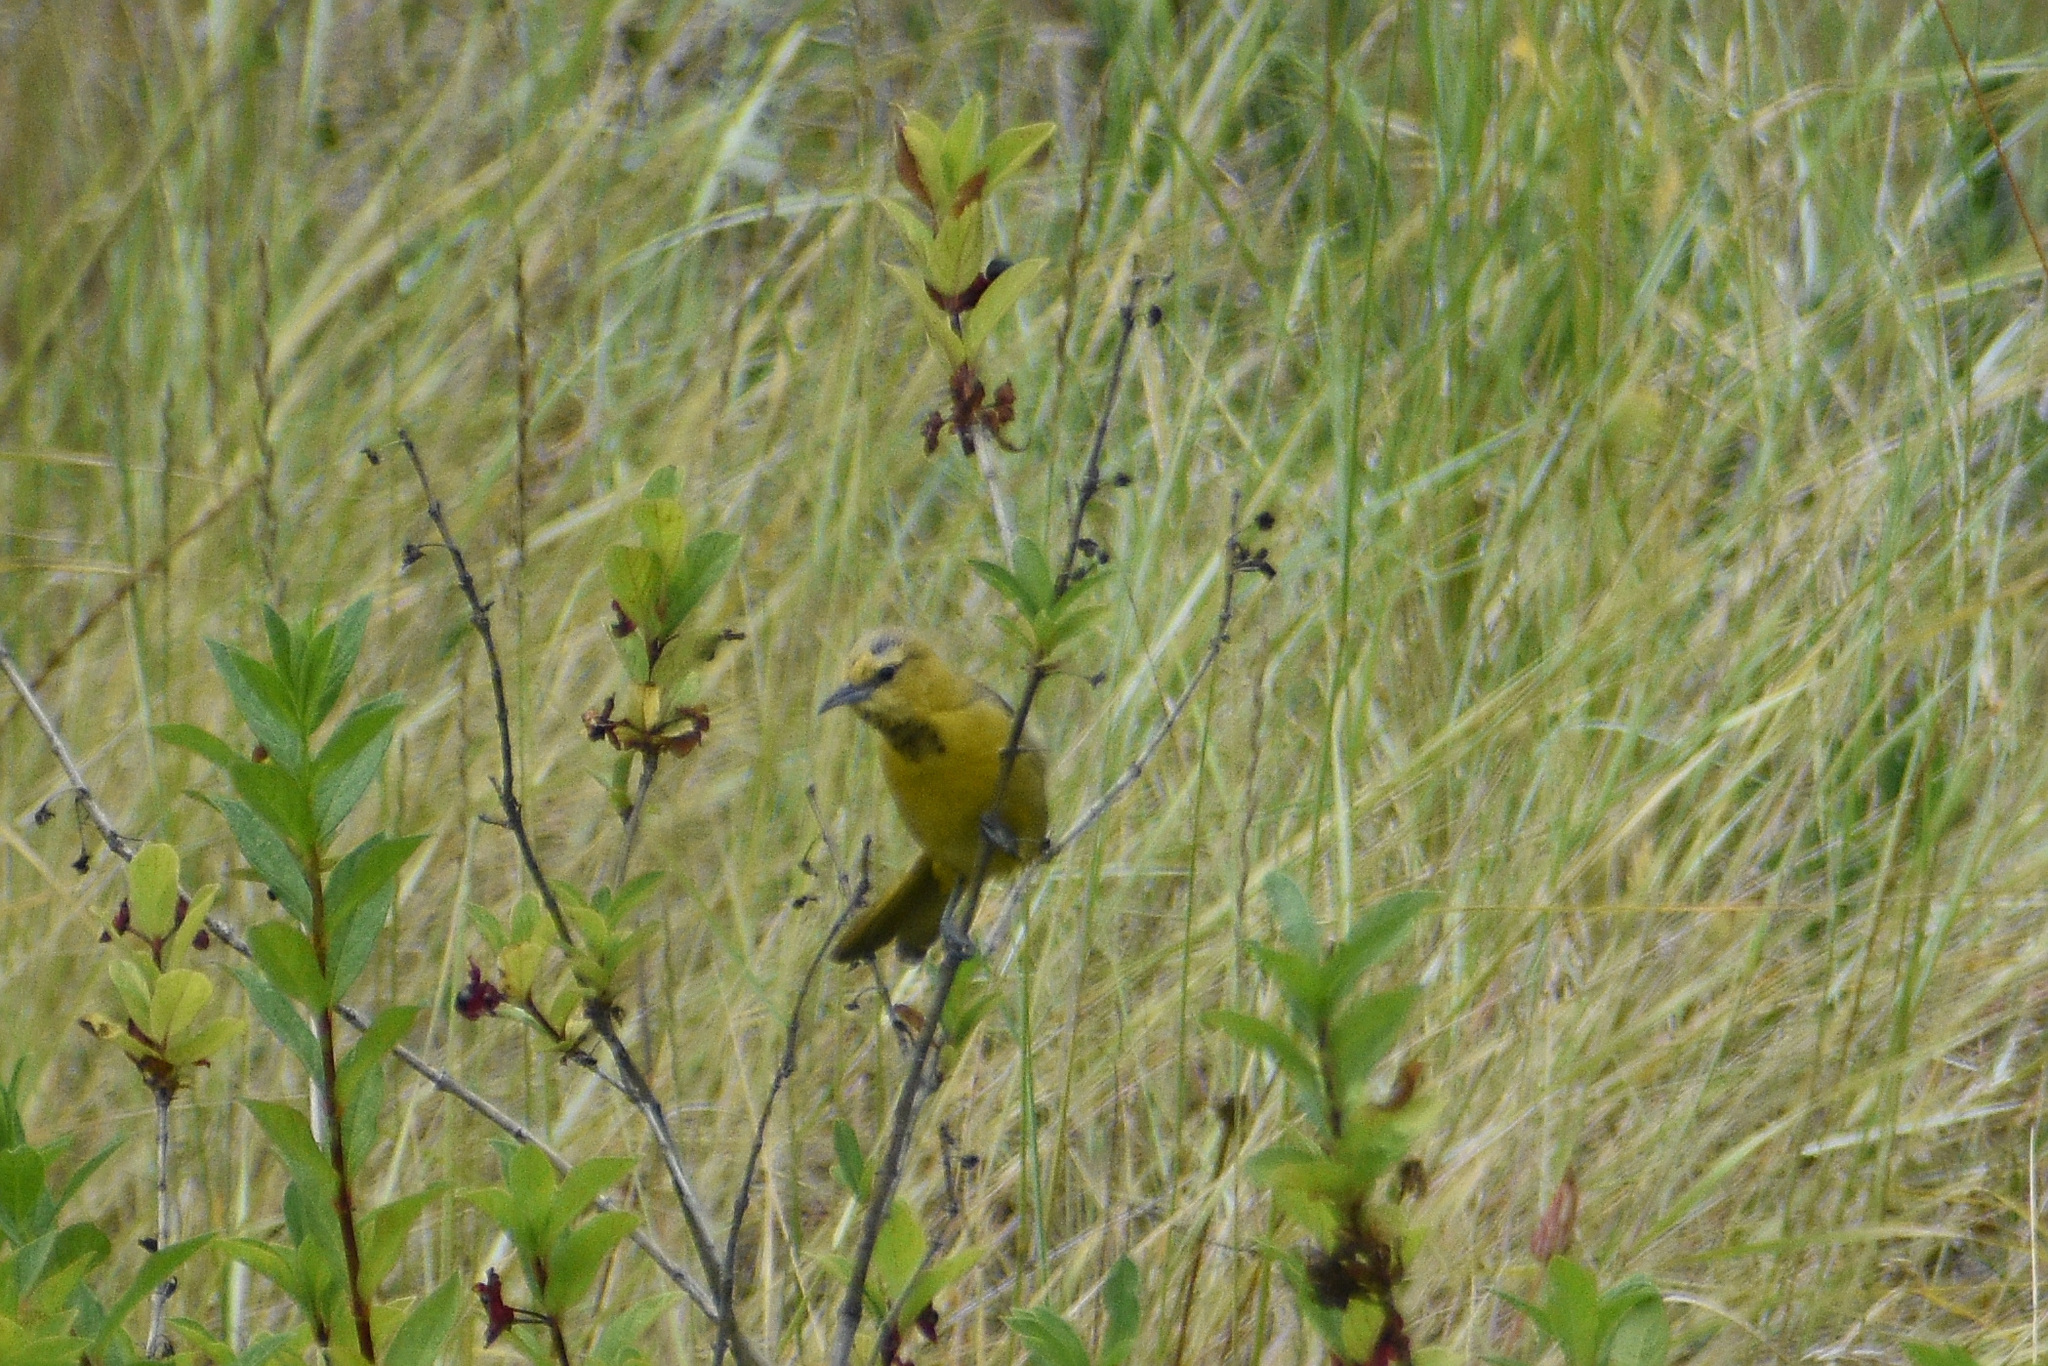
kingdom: Animalia
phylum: Chordata
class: Aves
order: Passeriformes
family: Icteridae
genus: Icterus
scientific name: Icterus cucullatus
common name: Hooded oriole
